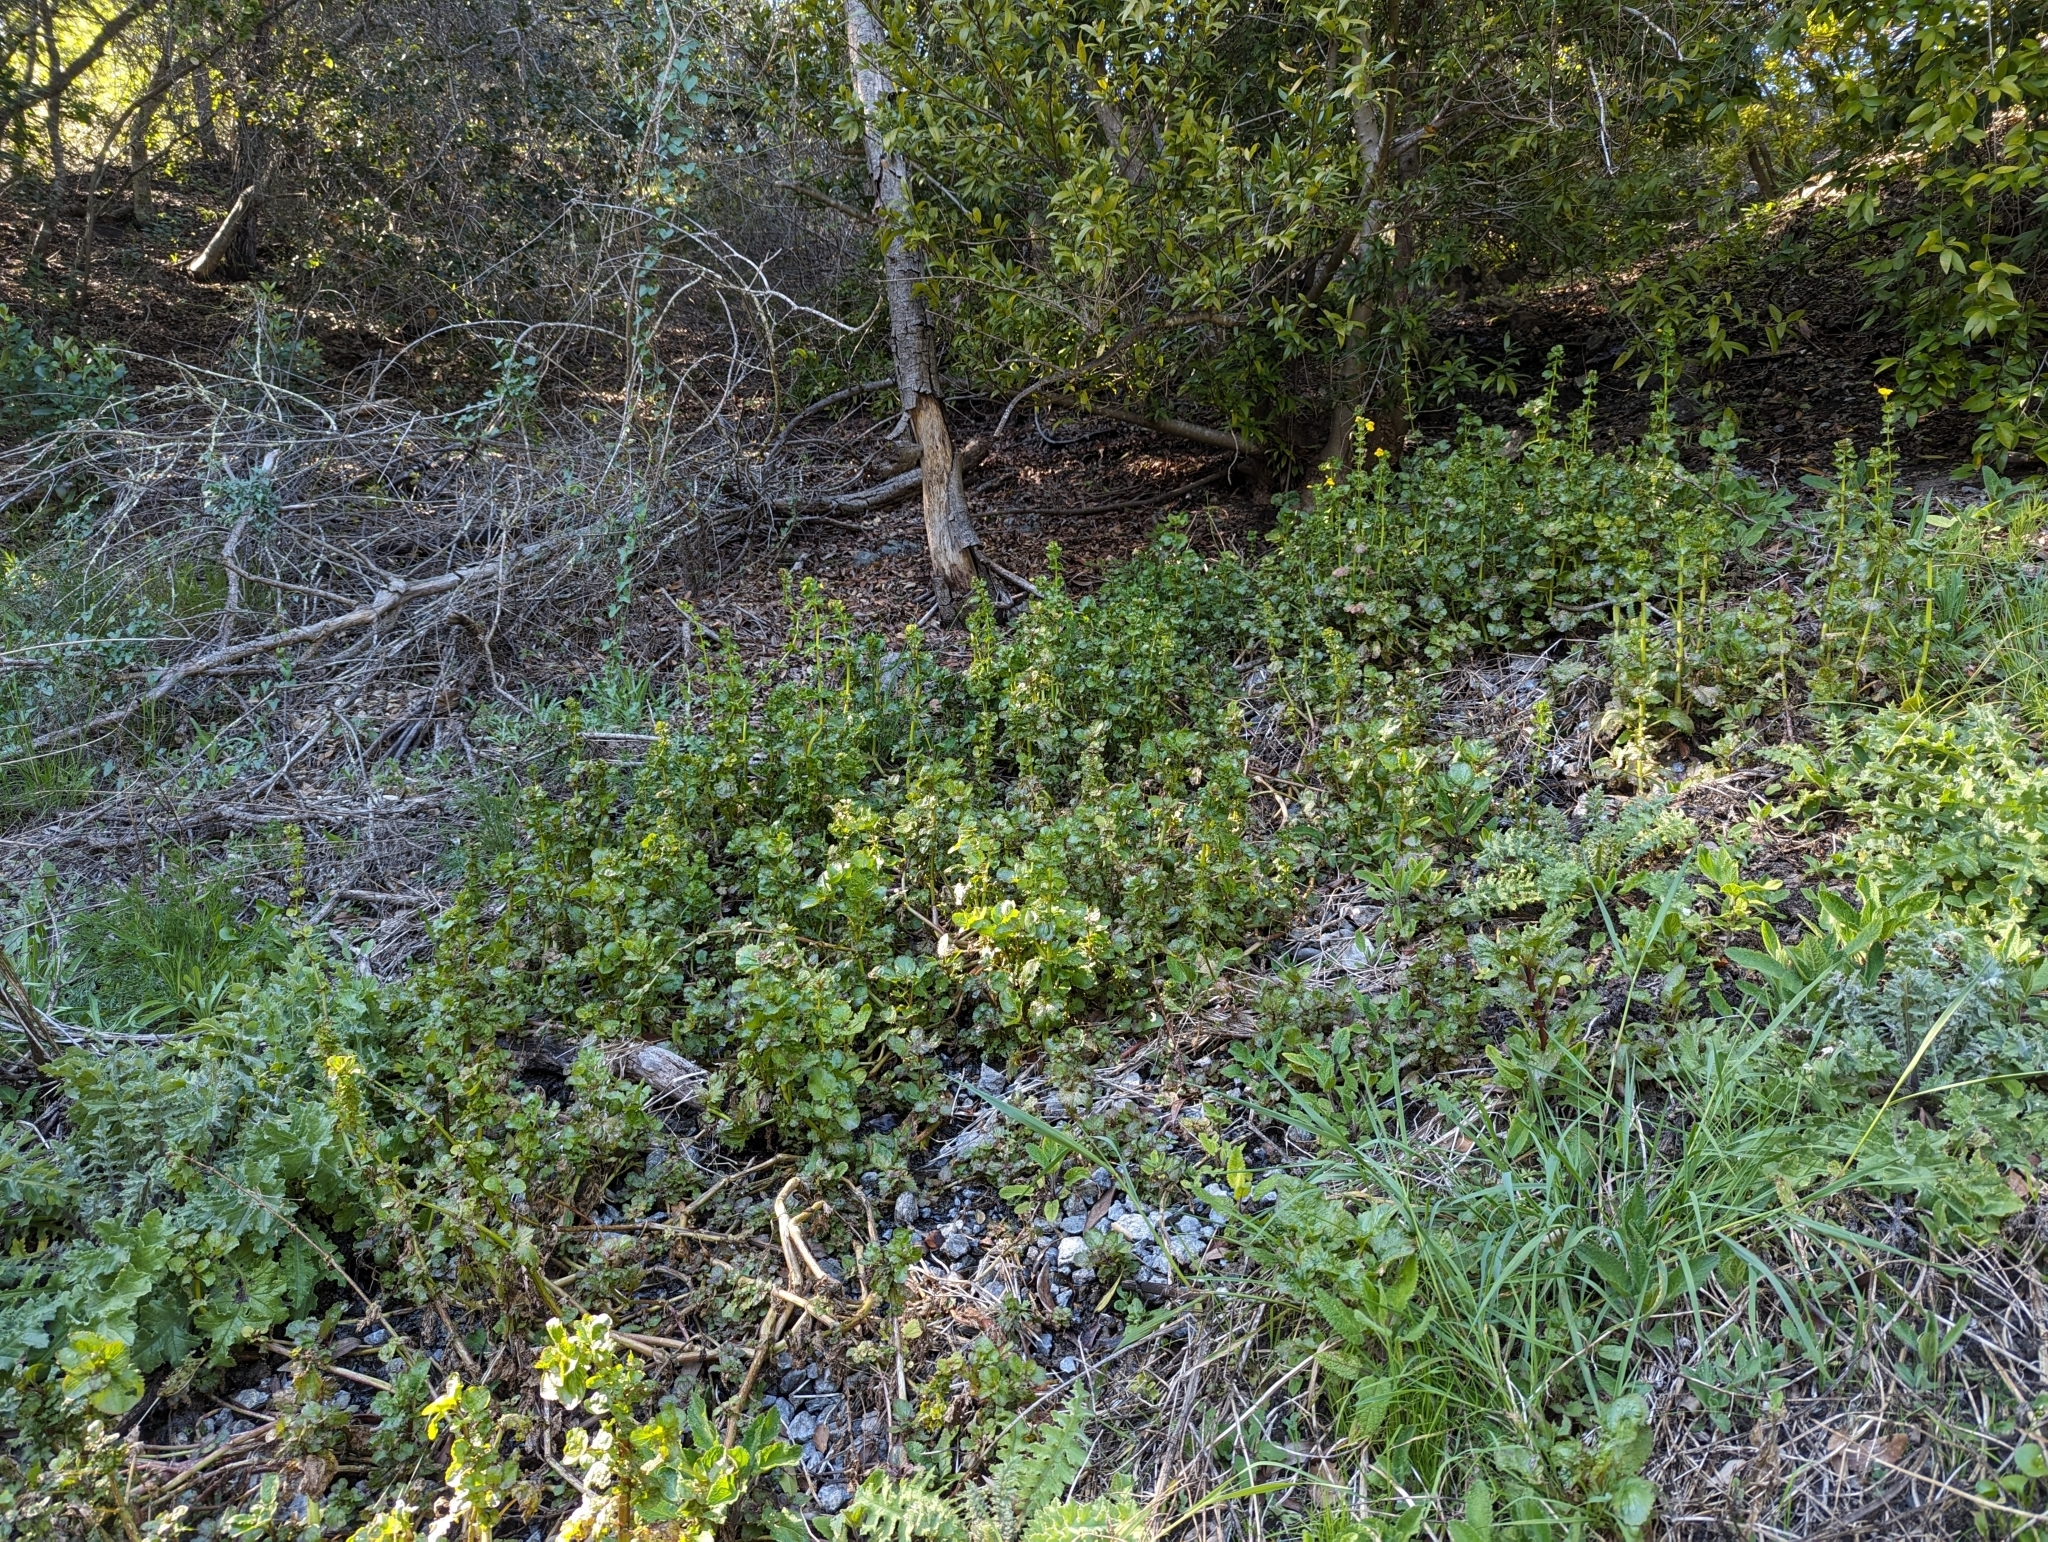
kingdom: Plantae
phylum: Tracheophyta
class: Magnoliopsida
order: Lamiales
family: Phrymaceae
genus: Erythranthe
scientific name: Erythranthe guttata
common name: Monkeyflower
